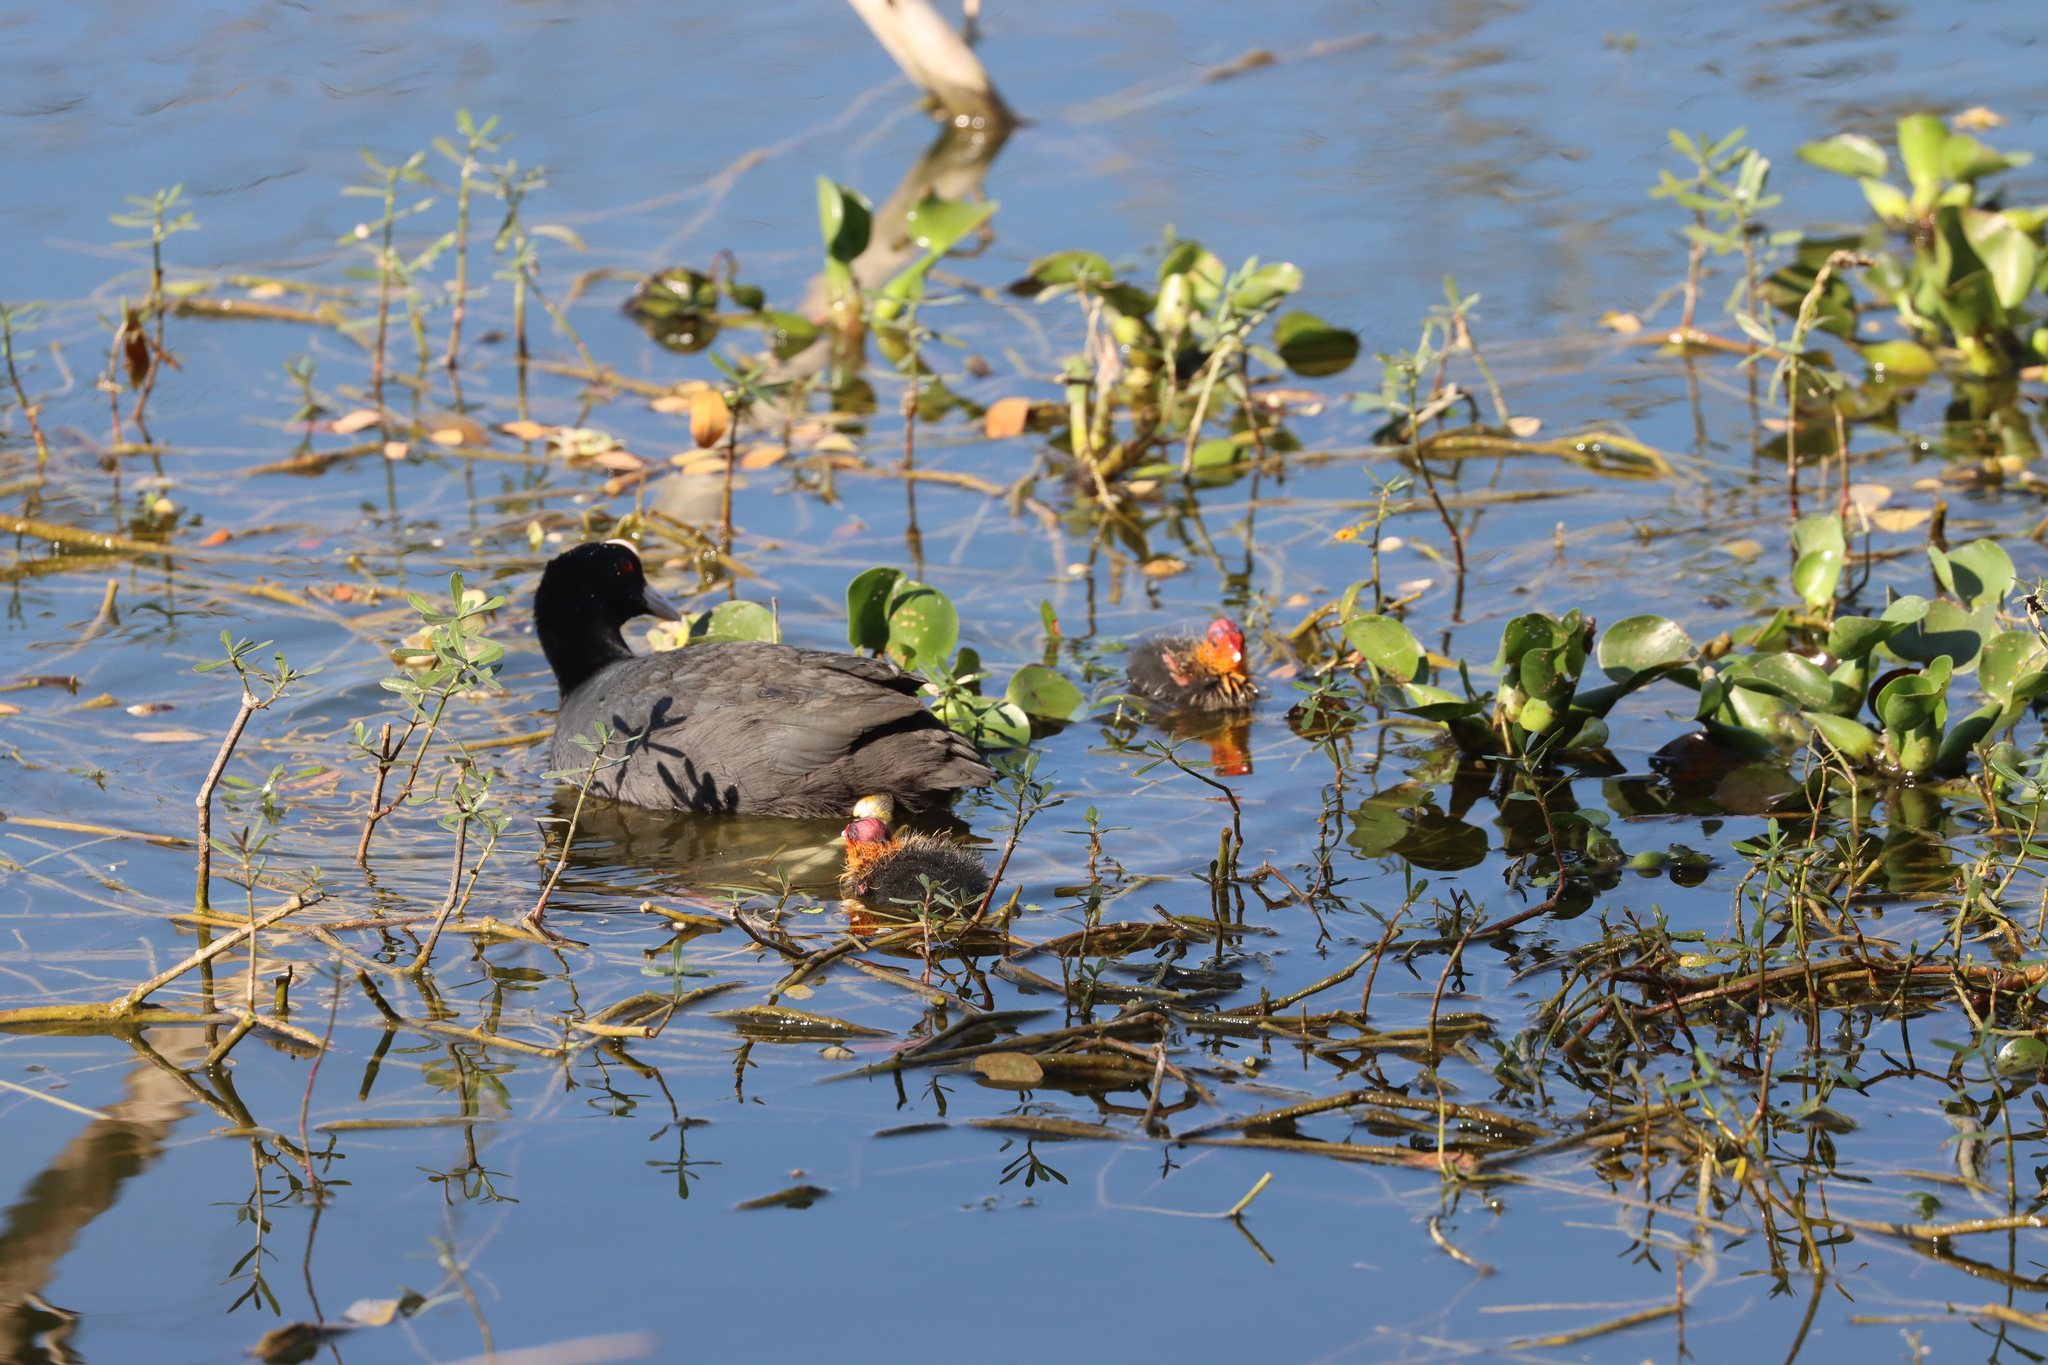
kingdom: Animalia
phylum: Chordata
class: Aves
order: Gruiformes
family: Rallidae
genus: Fulica
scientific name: Fulica atra
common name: Eurasian coot
